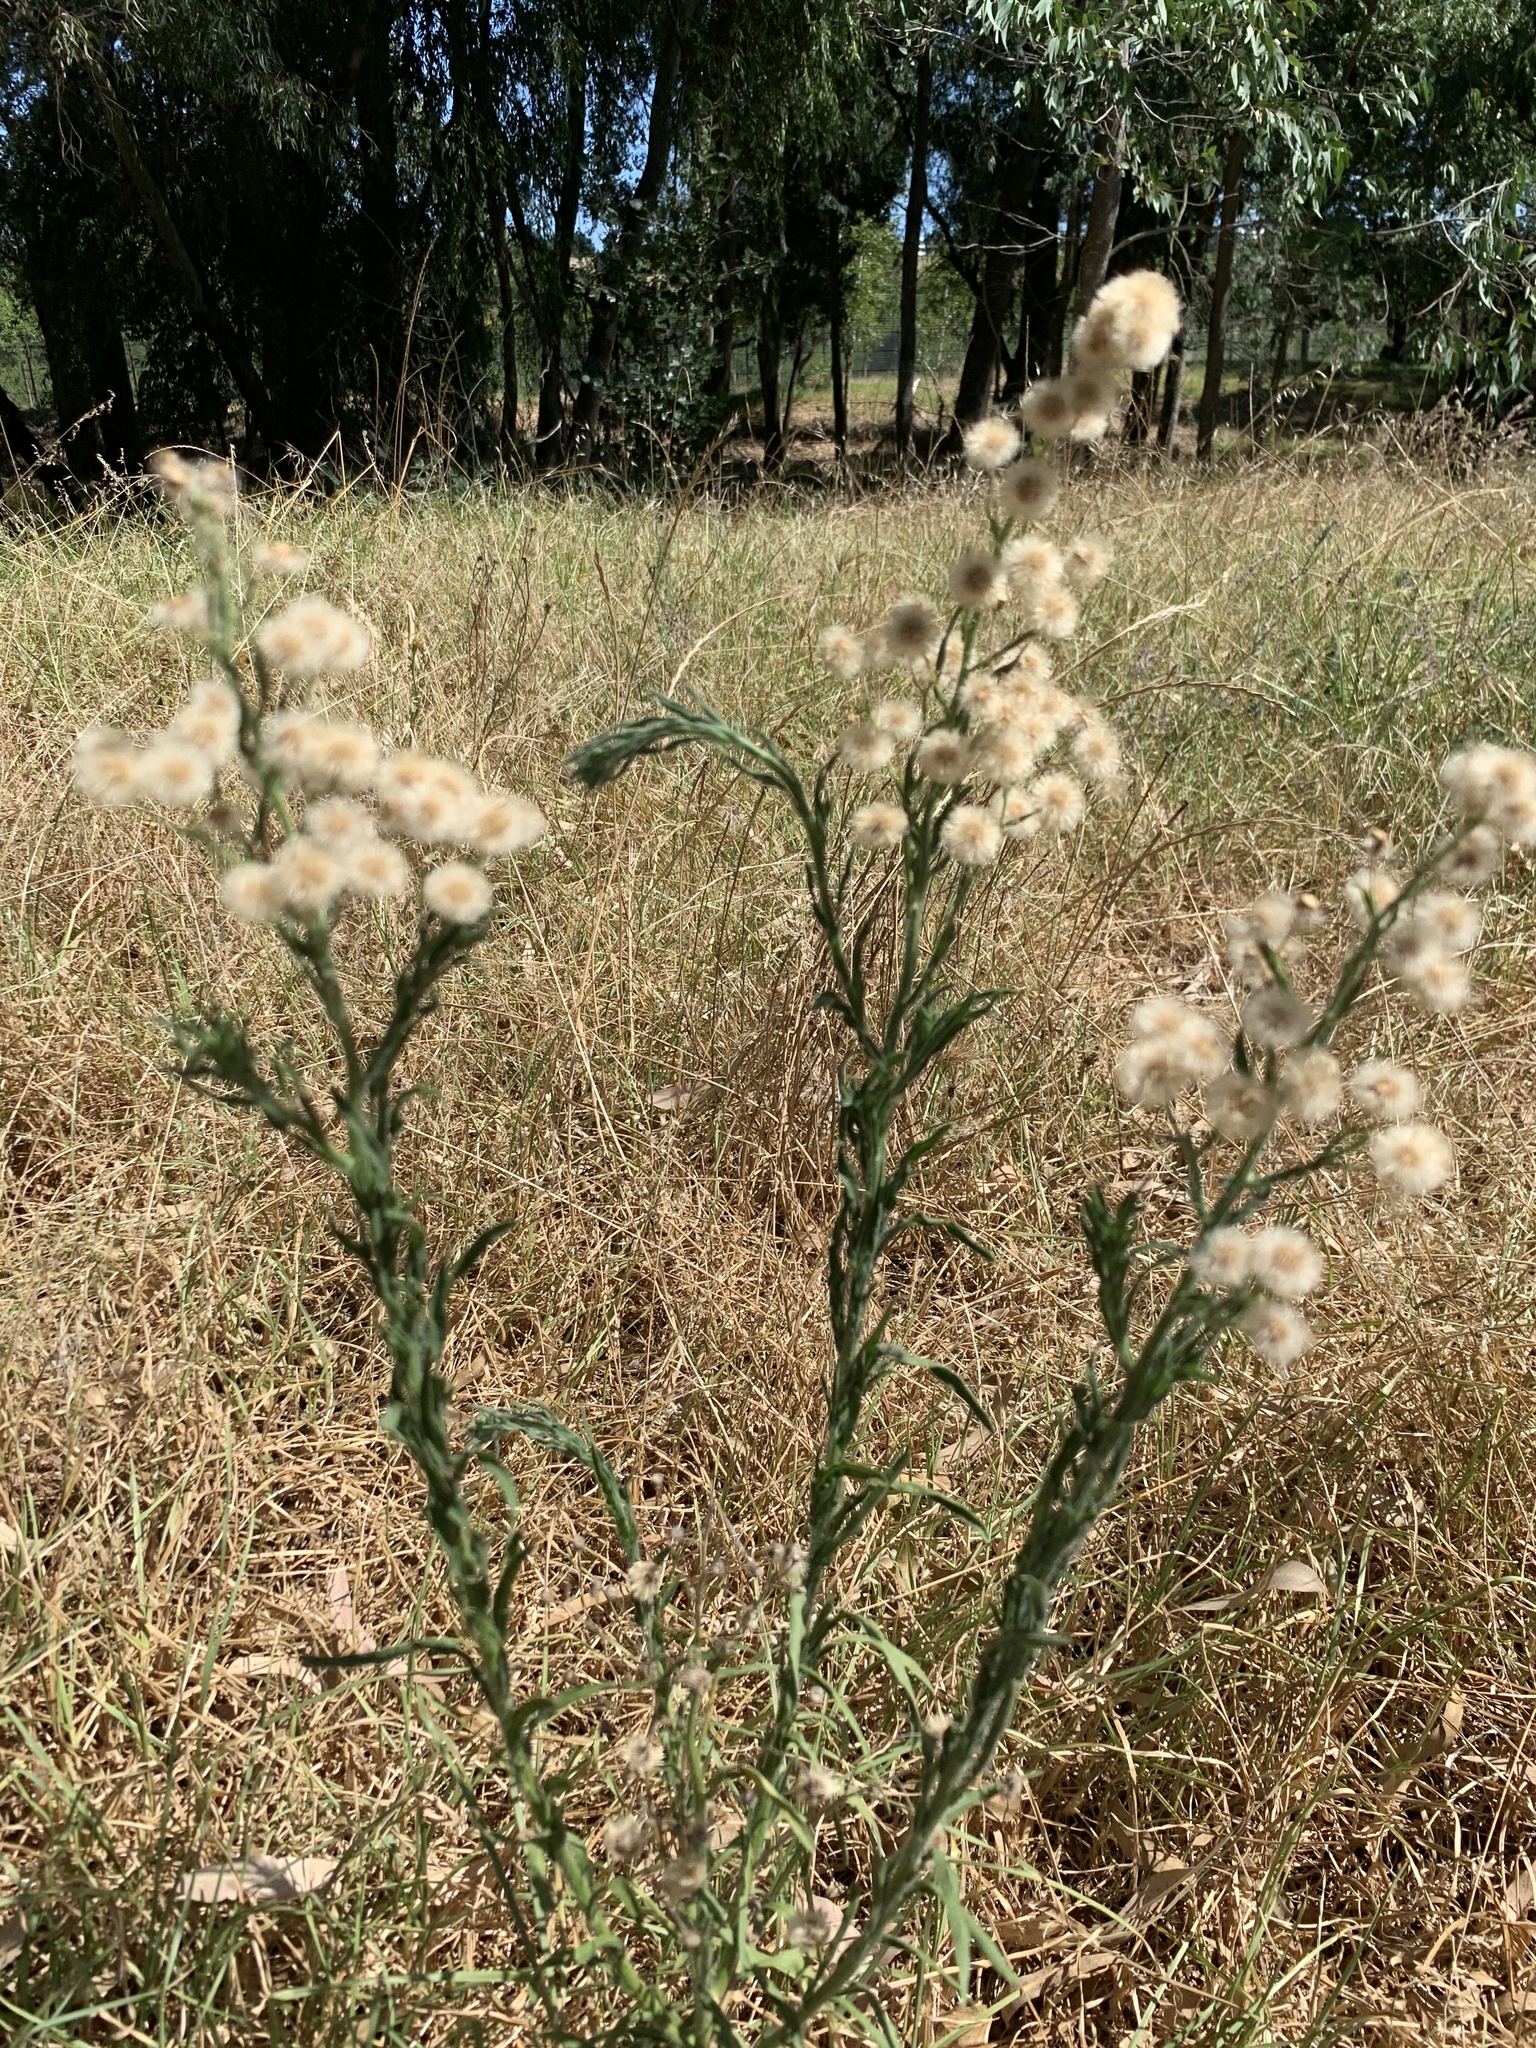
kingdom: Plantae
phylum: Tracheophyta
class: Magnoliopsida
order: Asterales
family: Asteraceae
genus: Erigeron
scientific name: Erigeron bonariensis
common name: Argentine fleabane
